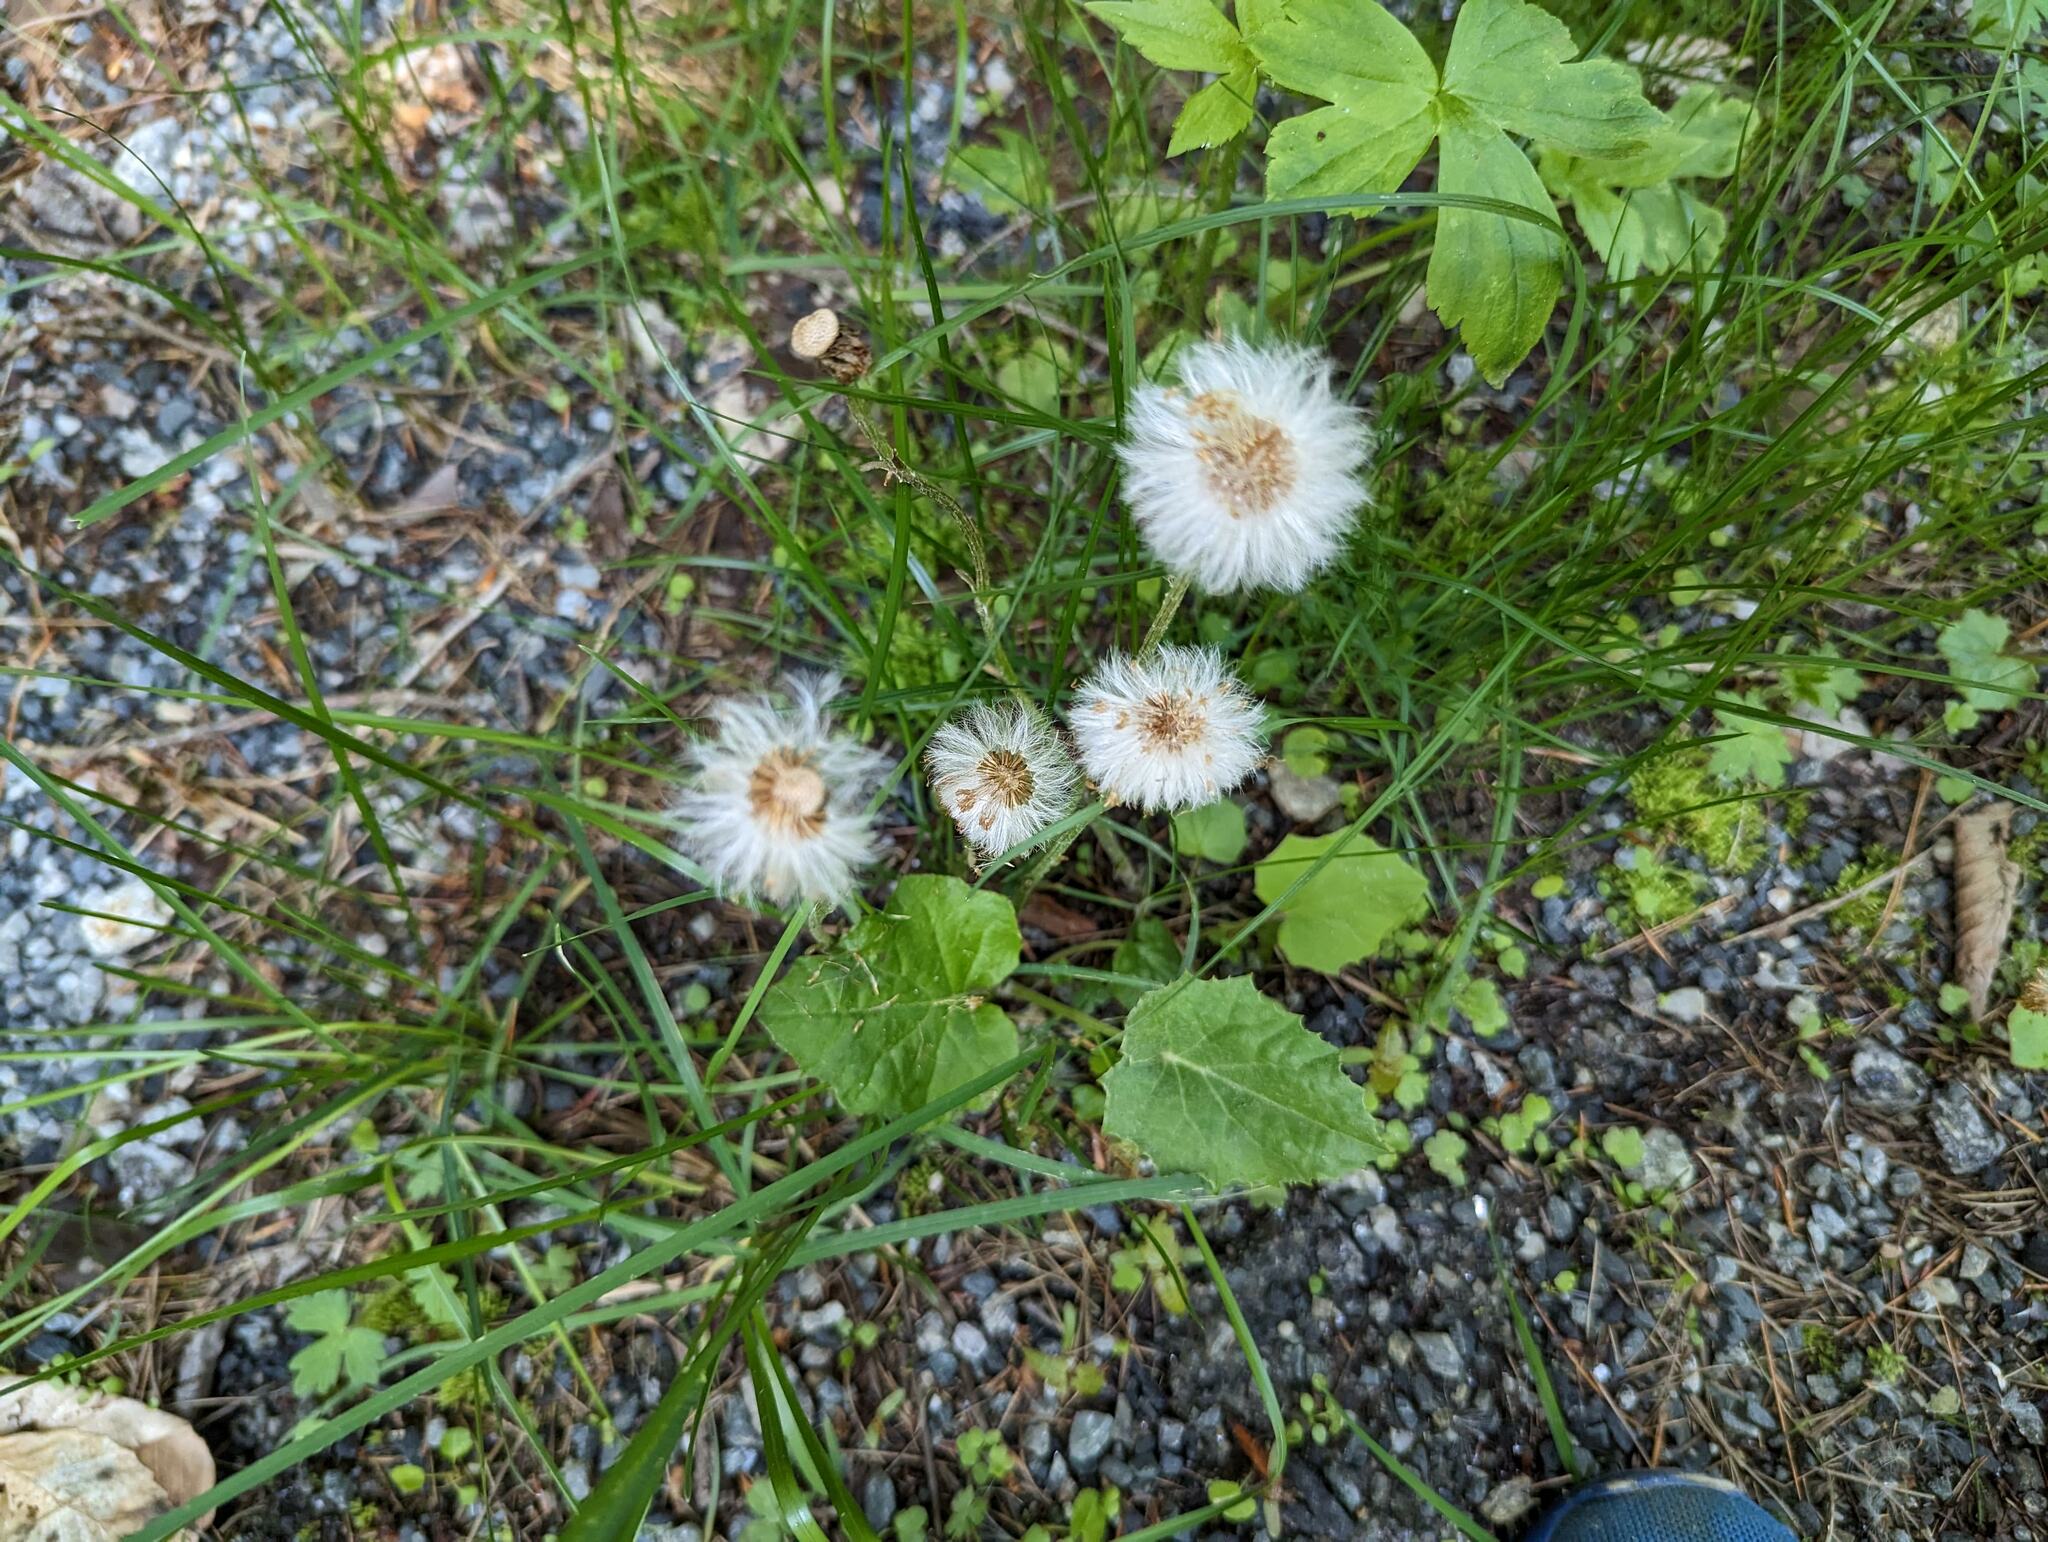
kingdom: Plantae
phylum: Tracheophyta
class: Magnoliopsida
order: Asterales
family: Asteraceae
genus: Tussilago
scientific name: Tussilago farfara
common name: Coltsfoot
